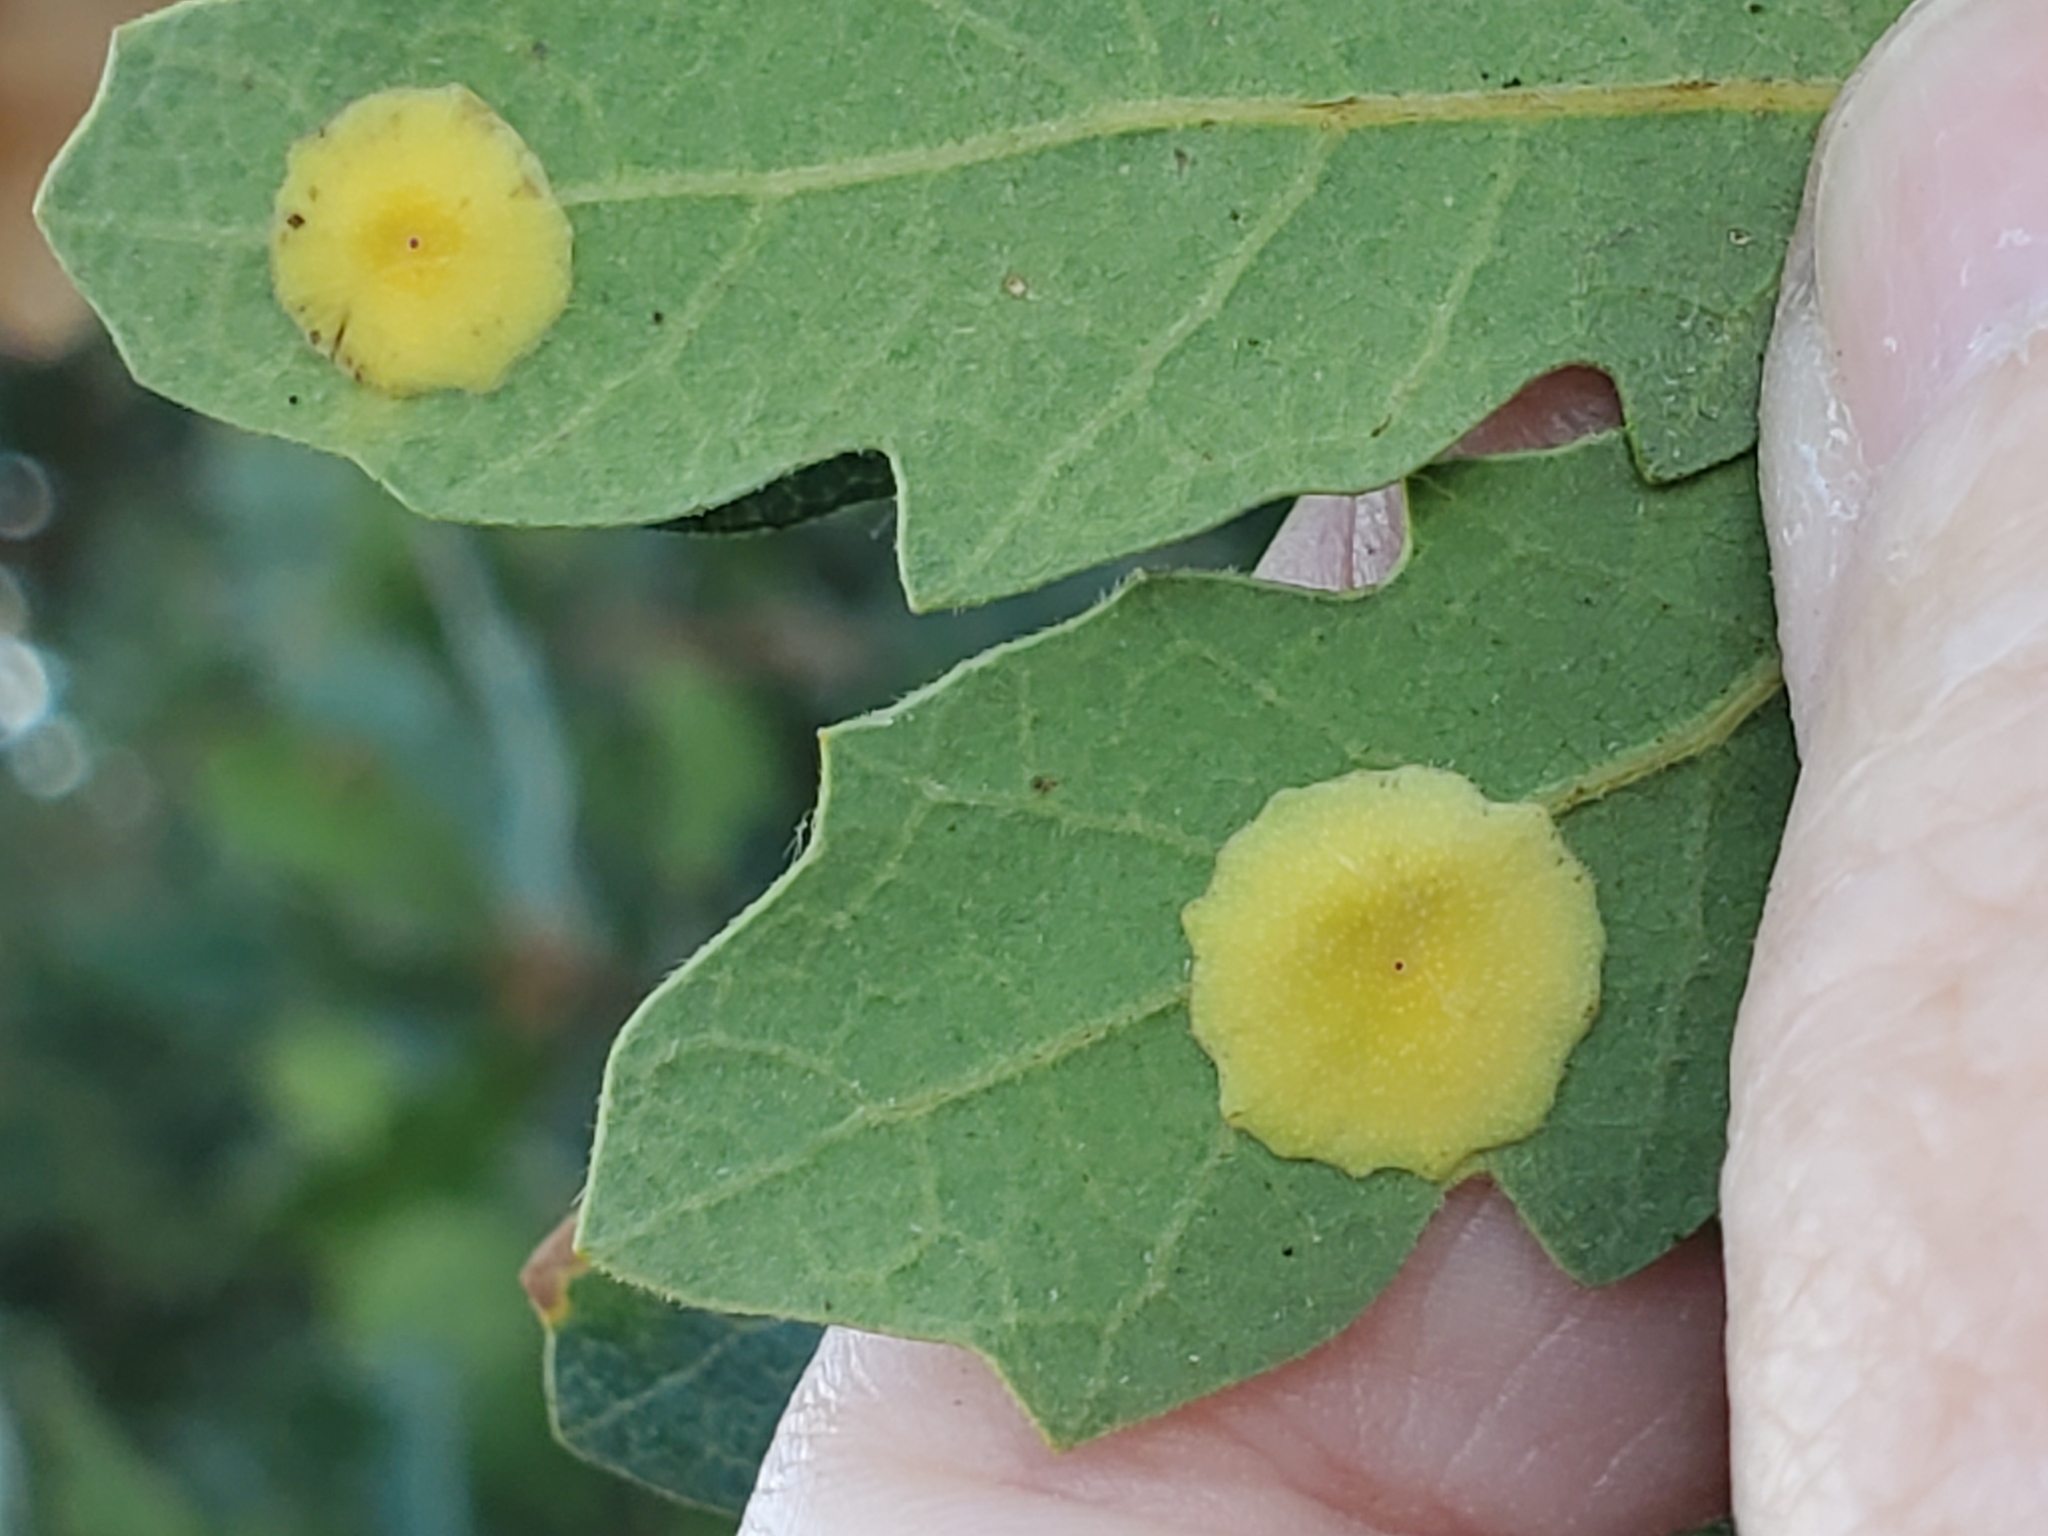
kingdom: Animalia
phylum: Arthropoda
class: Insecta
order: Hymenoptera
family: Cynipidae
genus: Andricus
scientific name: Andricus
